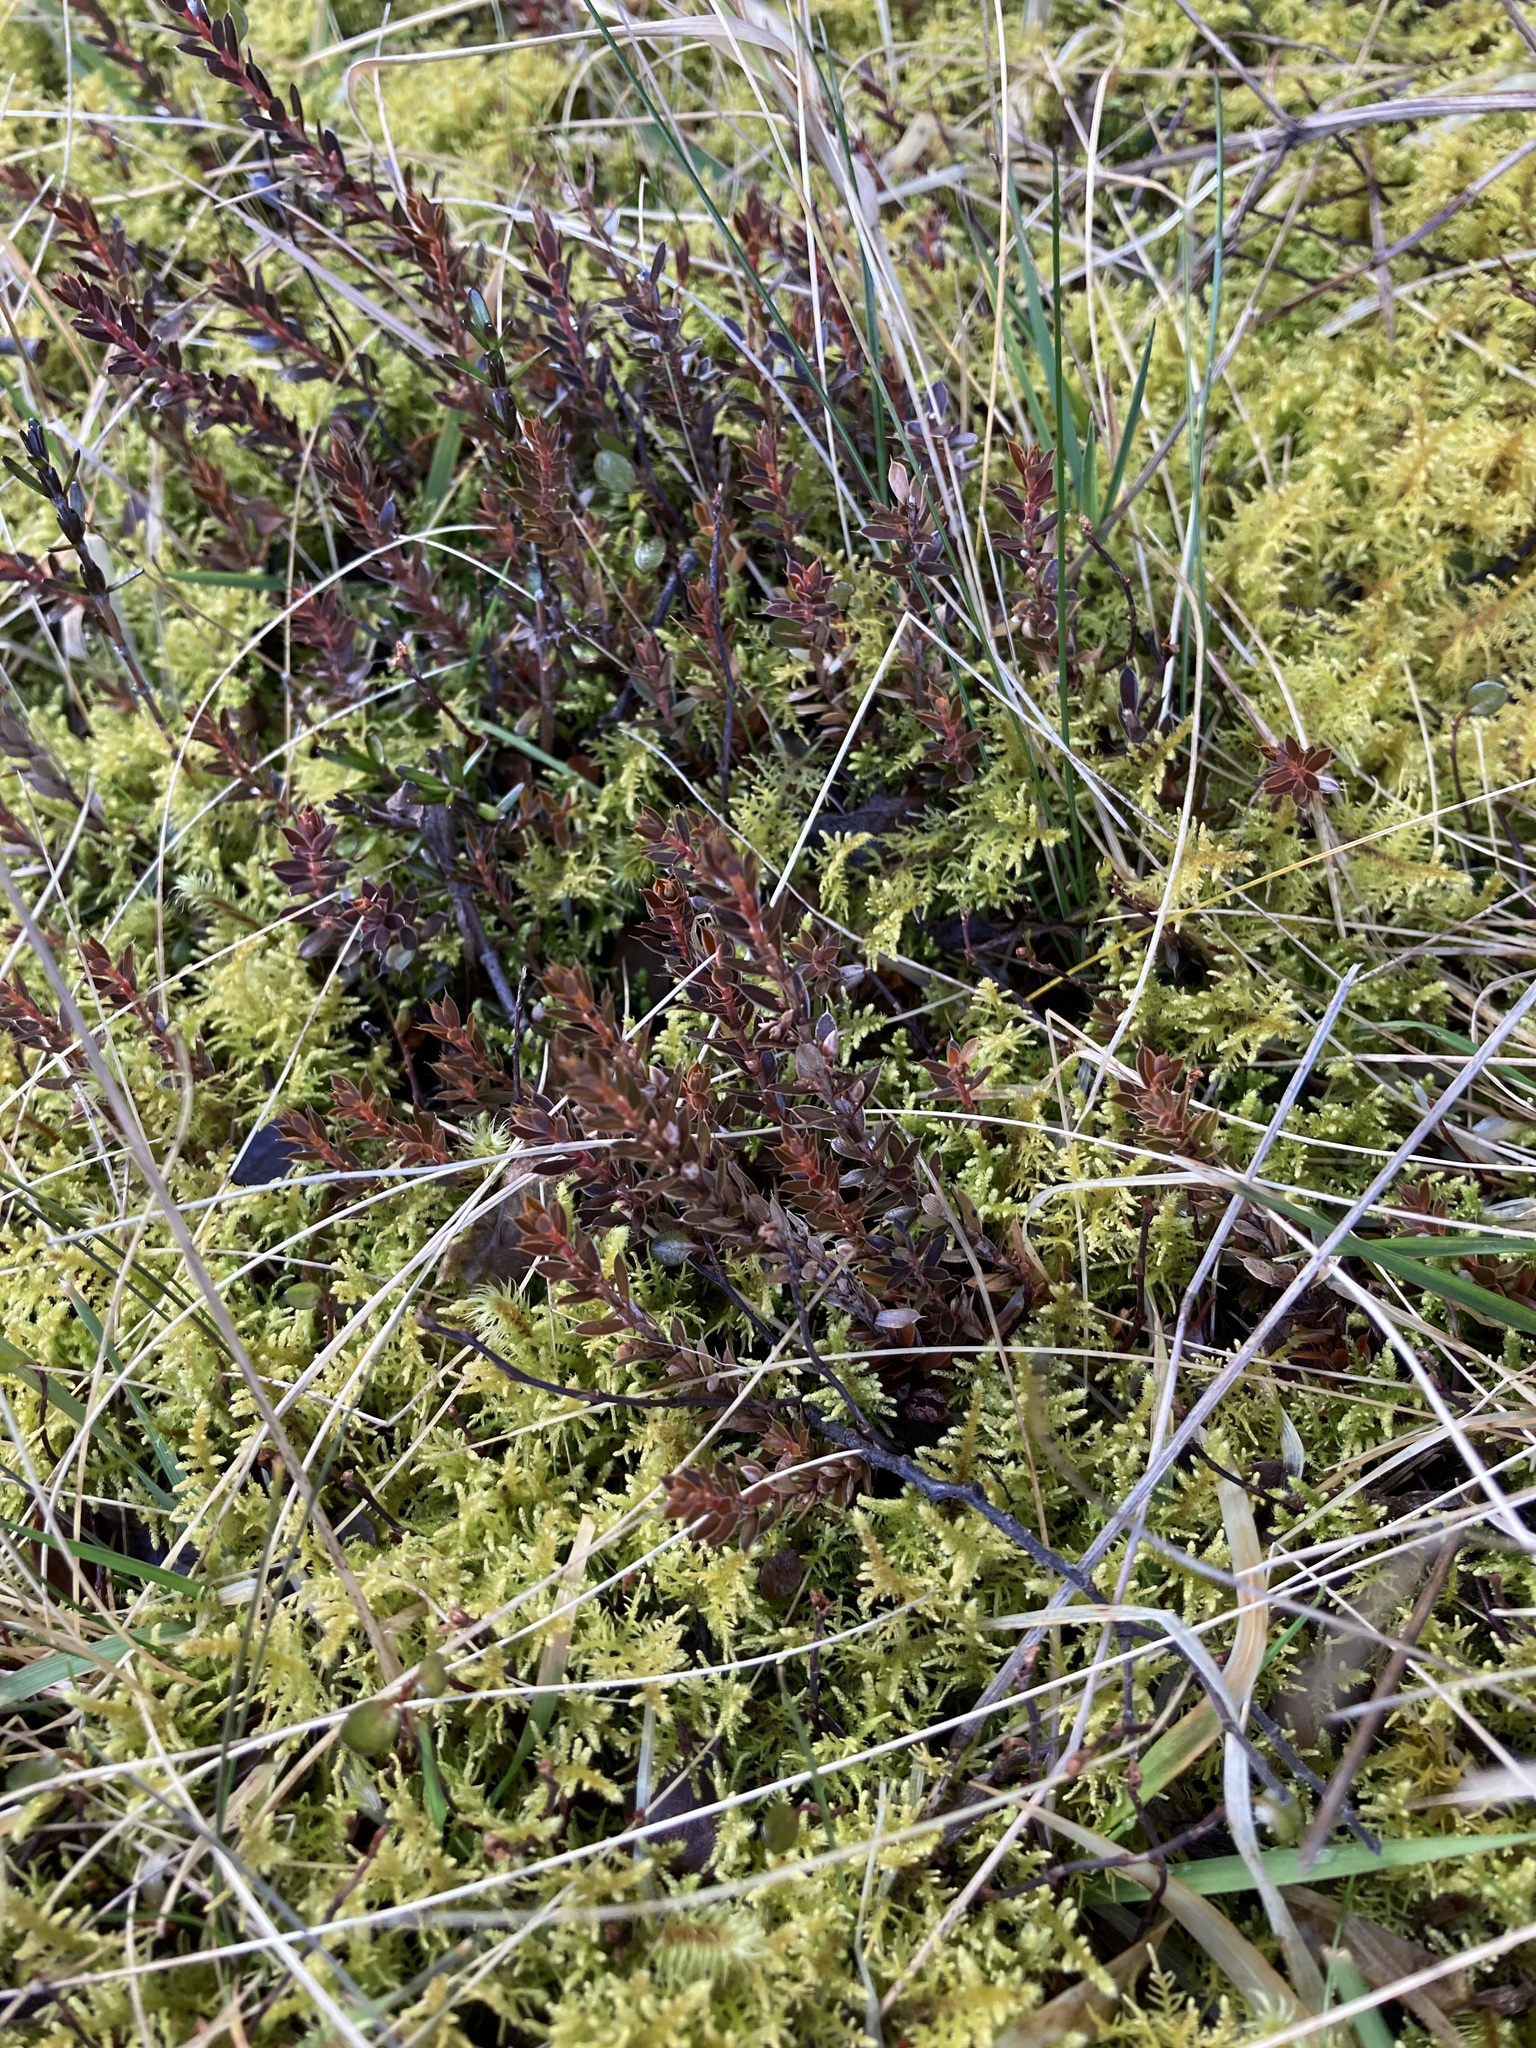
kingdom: Plantae
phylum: Tracheophyta
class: Magnoliopsida
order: Ericales
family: Ericaceae
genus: Styphelia
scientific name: Styphelia nesophila
